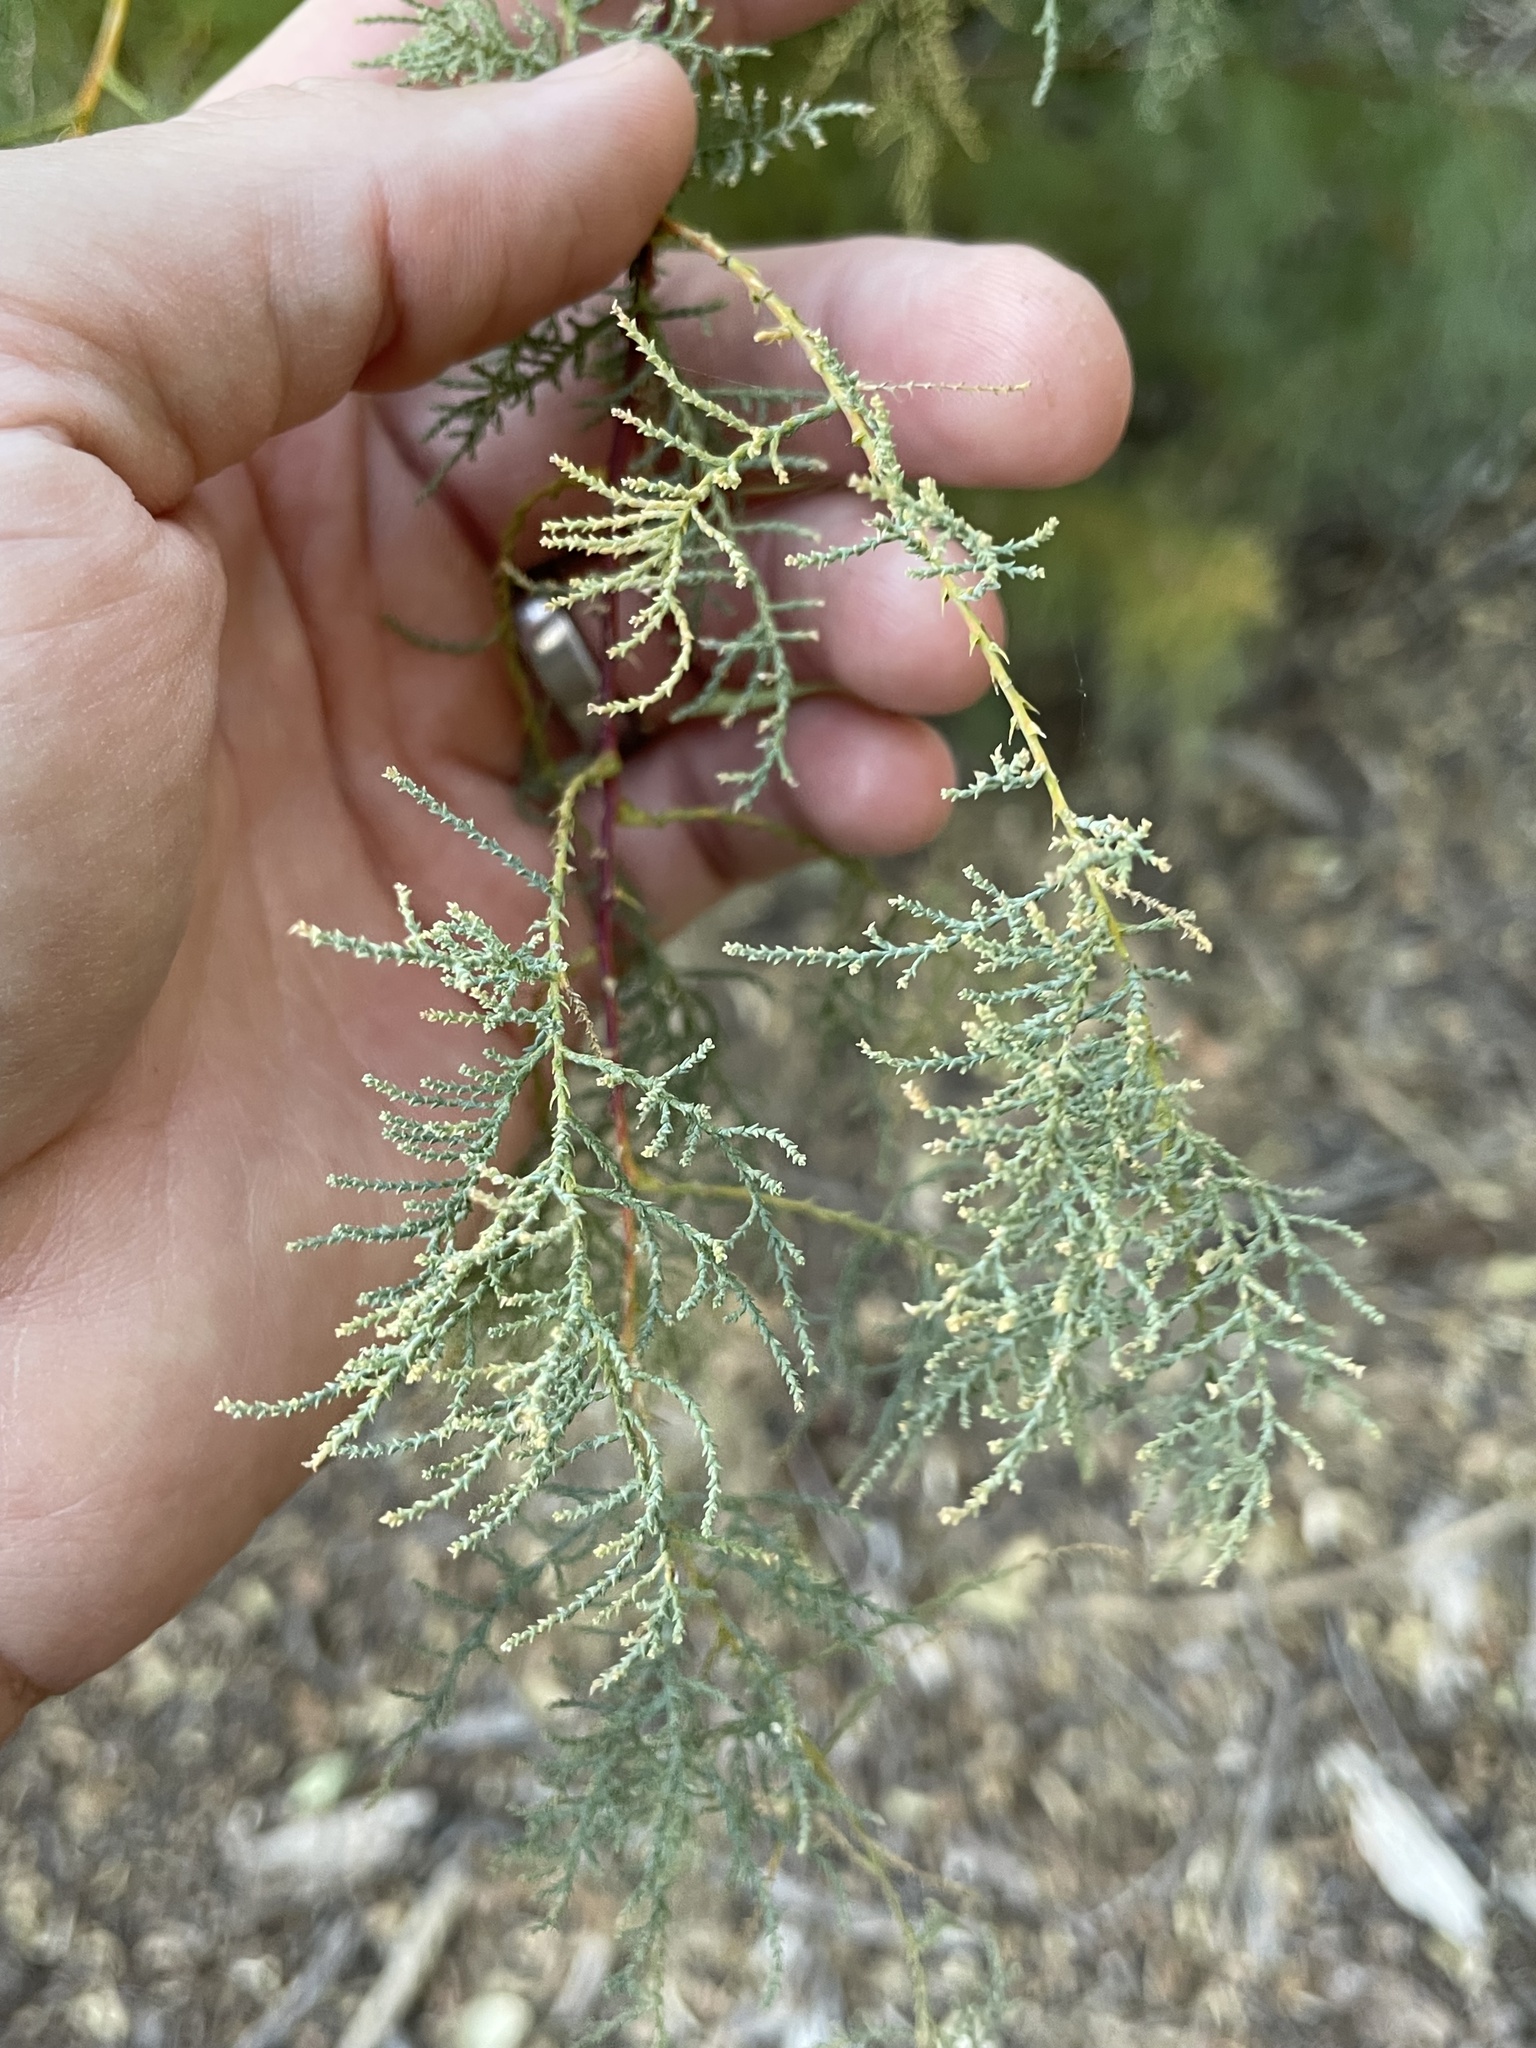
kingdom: Plantae
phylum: Tracheophyta
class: Magnoliopsida
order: Caryophyllales
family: Tamaricaceae
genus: Tamarix
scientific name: Tamarix ramosissima
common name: Pink tamarisk
